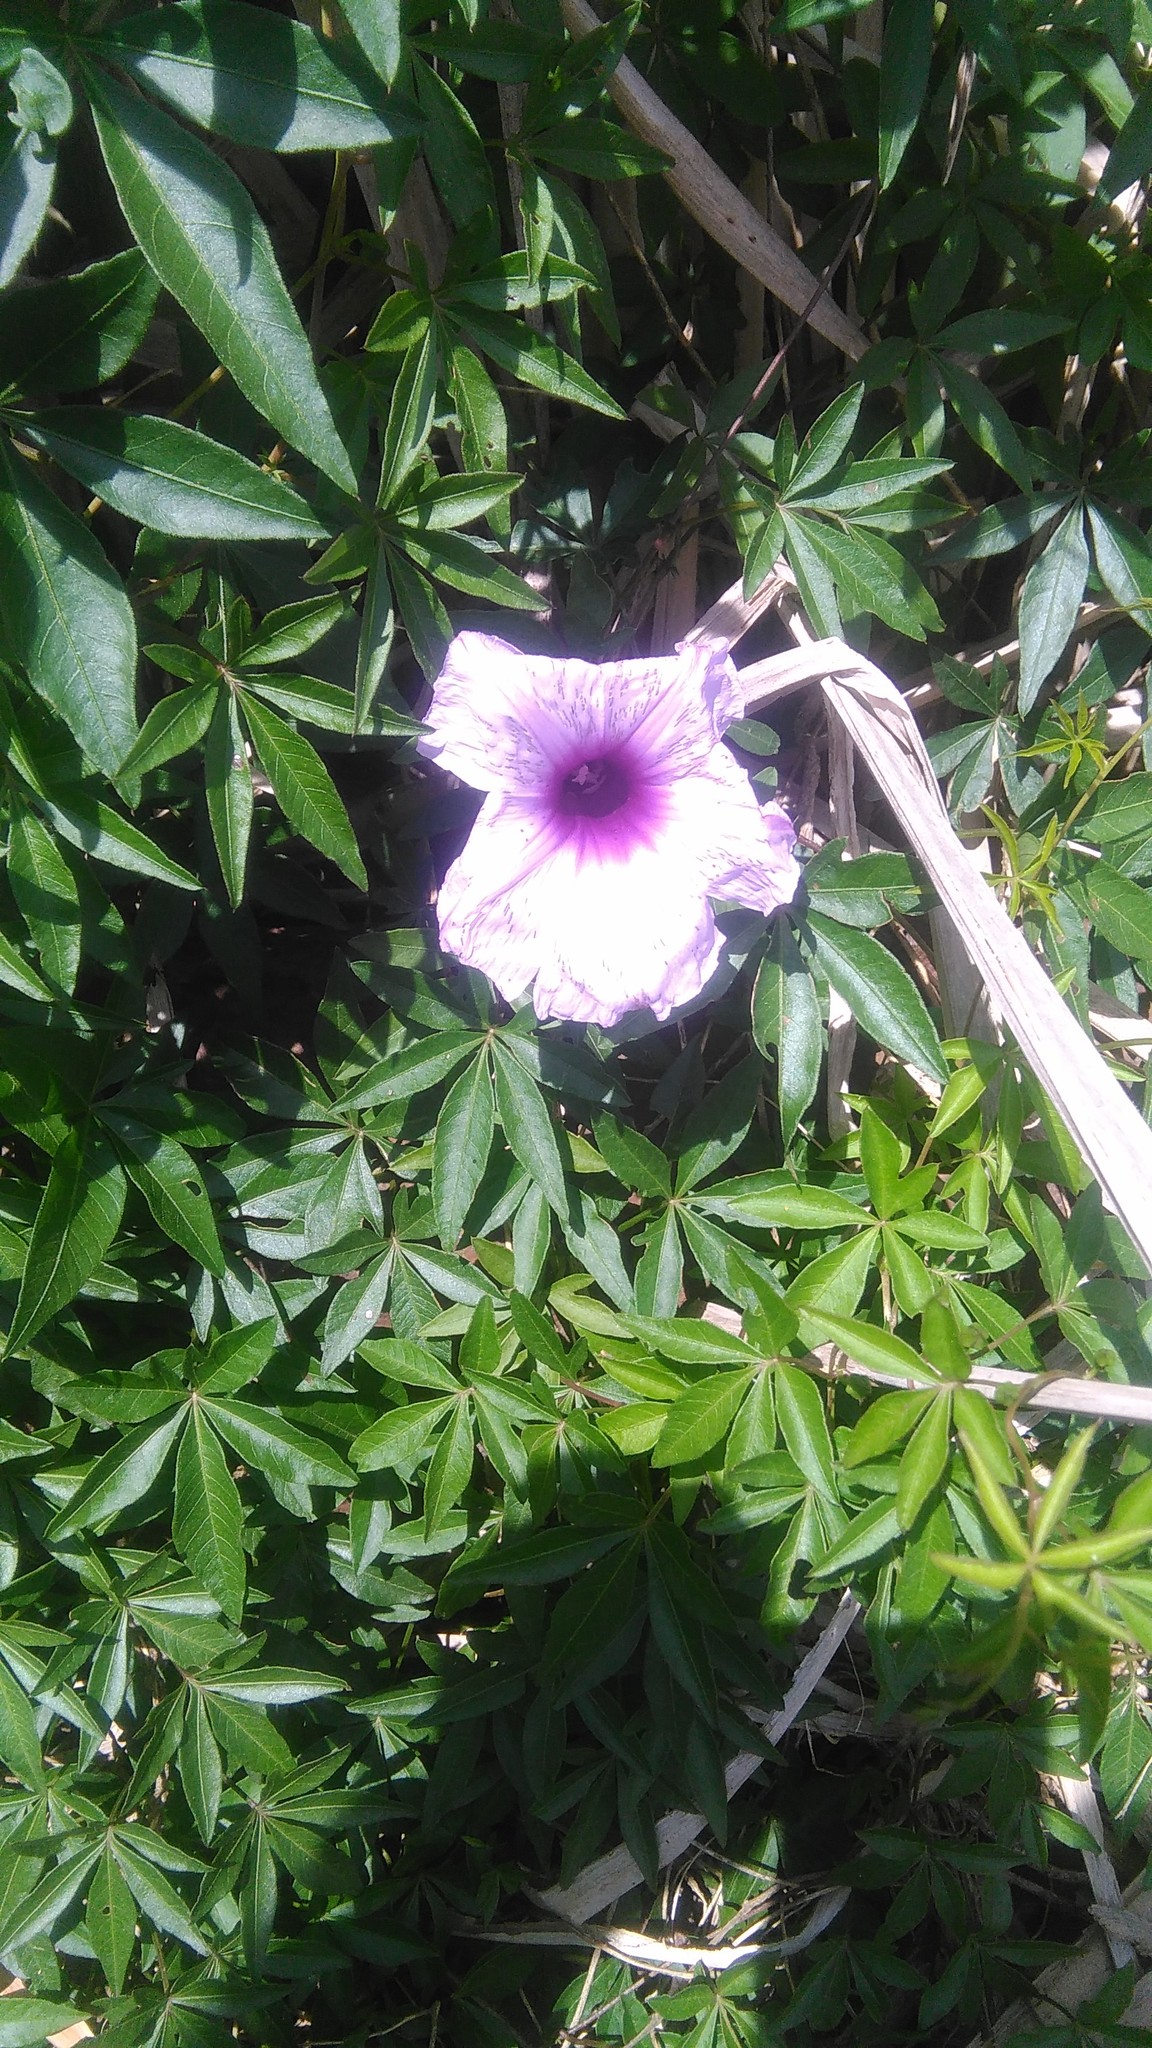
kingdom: Plantae
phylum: Tracheophyta
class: Magnoliopsida
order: Solanales
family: Convolvulaceae
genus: Ipomoea
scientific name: Ipomoea cairica
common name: Mile a minute vine
